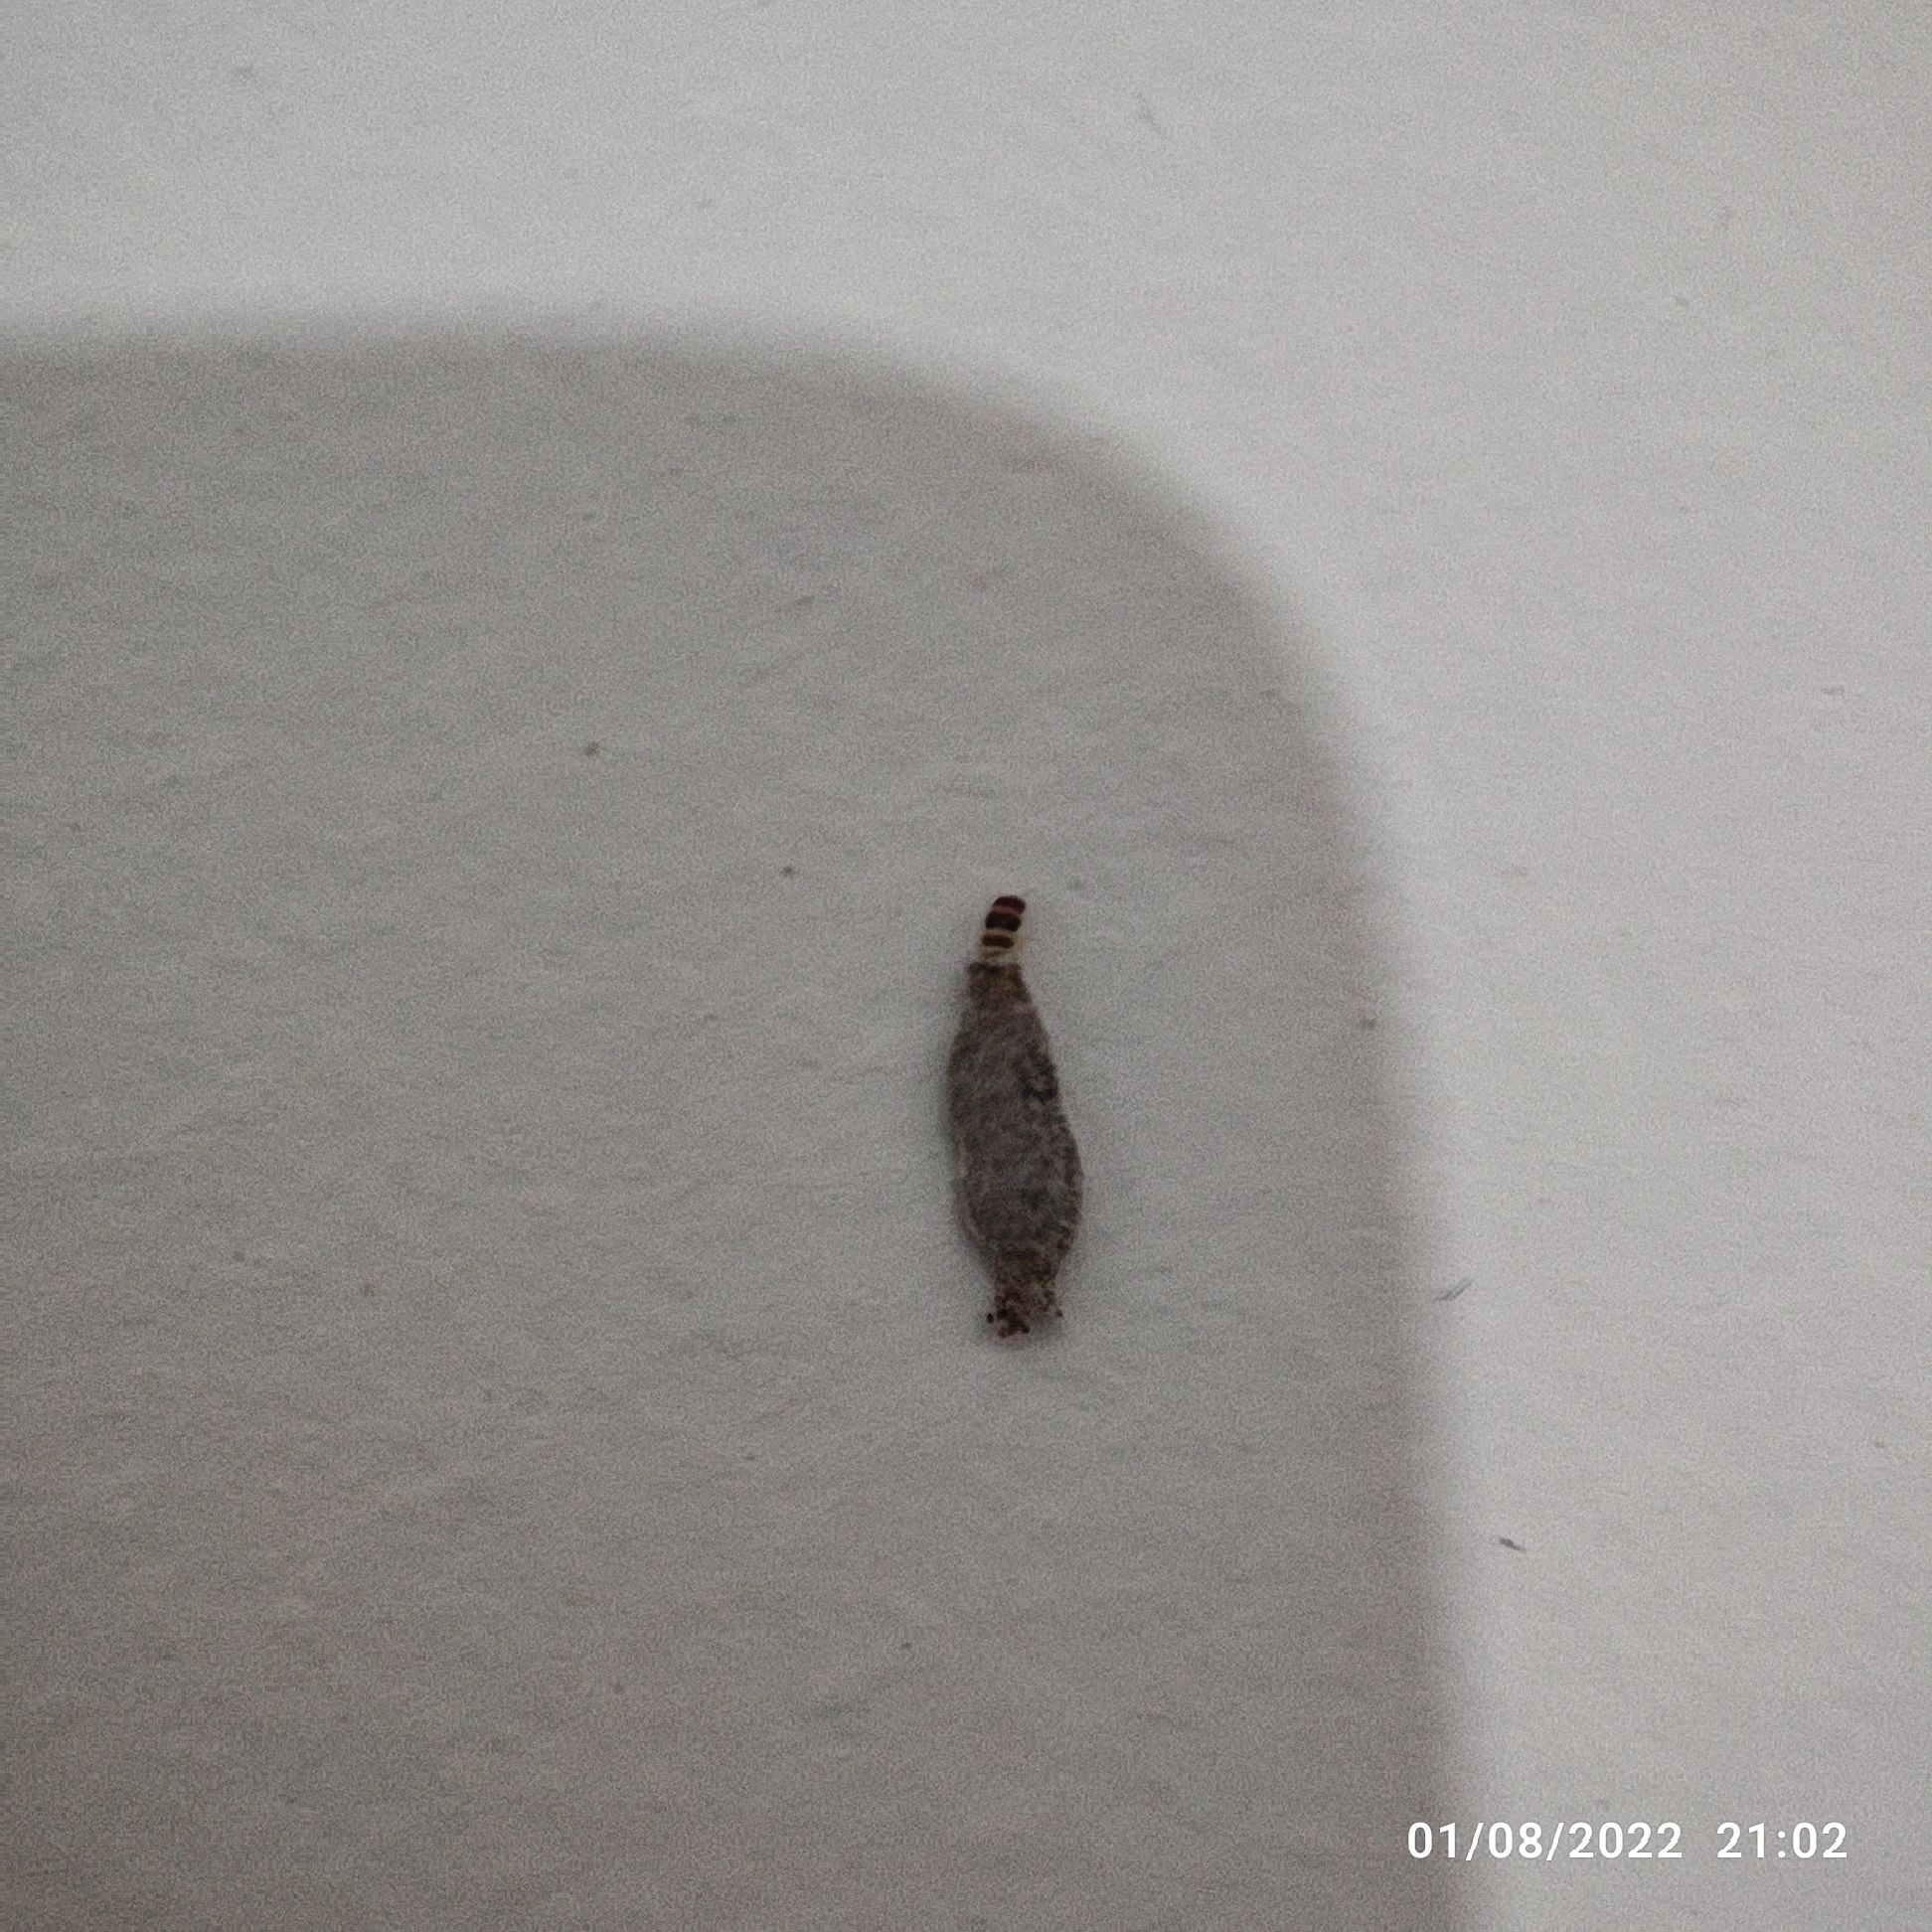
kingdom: Animalia
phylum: Arthropoda
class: Insecta
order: Lepidoptera
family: Tineidae
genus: Phereoeca
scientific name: Phereoeca uterella
